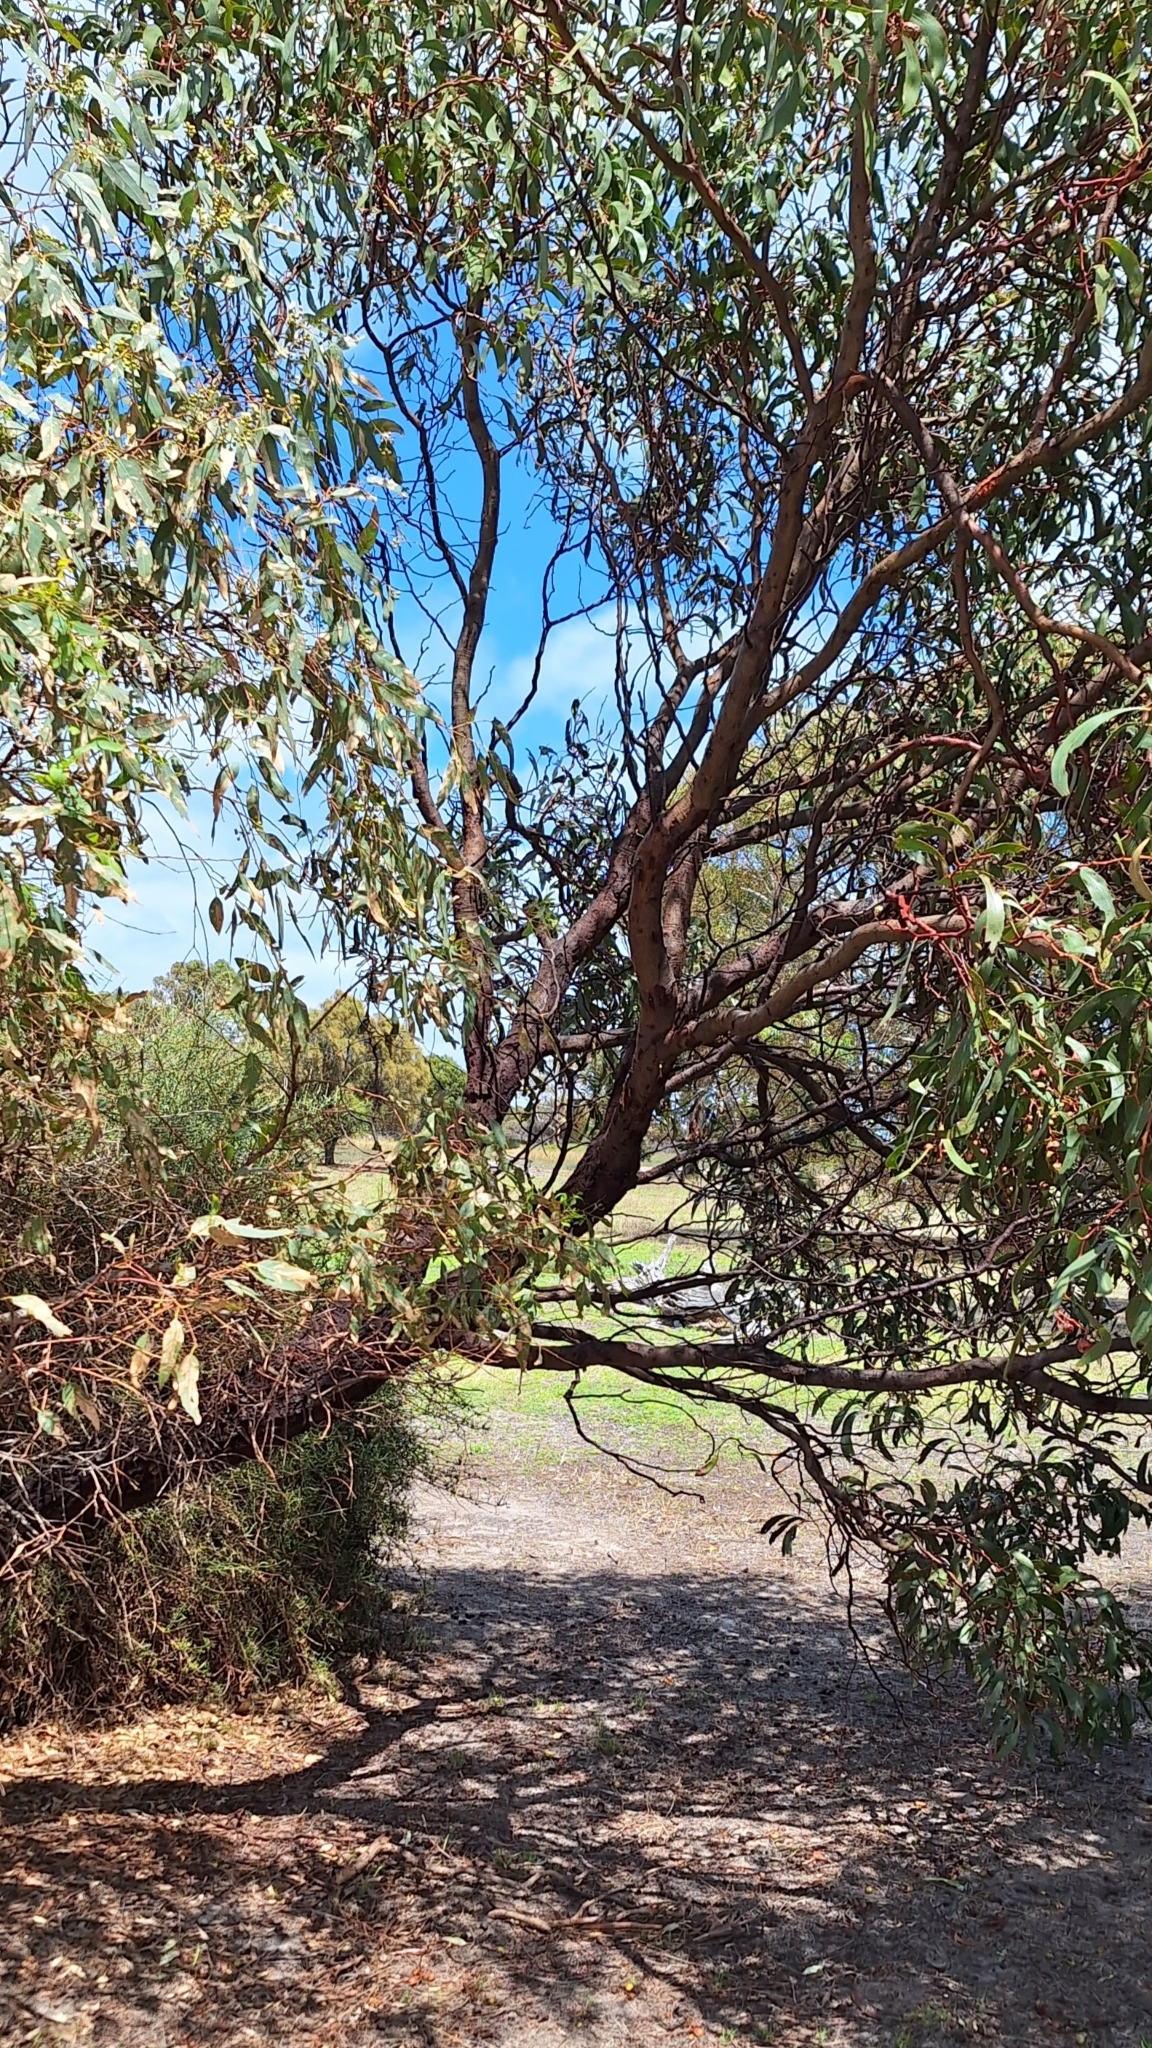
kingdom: Plantae
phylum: Tracheophyta
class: Magnoliopsida
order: Fabales
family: Fabaceae
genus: Acacia
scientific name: Acacia pycnantha
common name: Golden wattle
